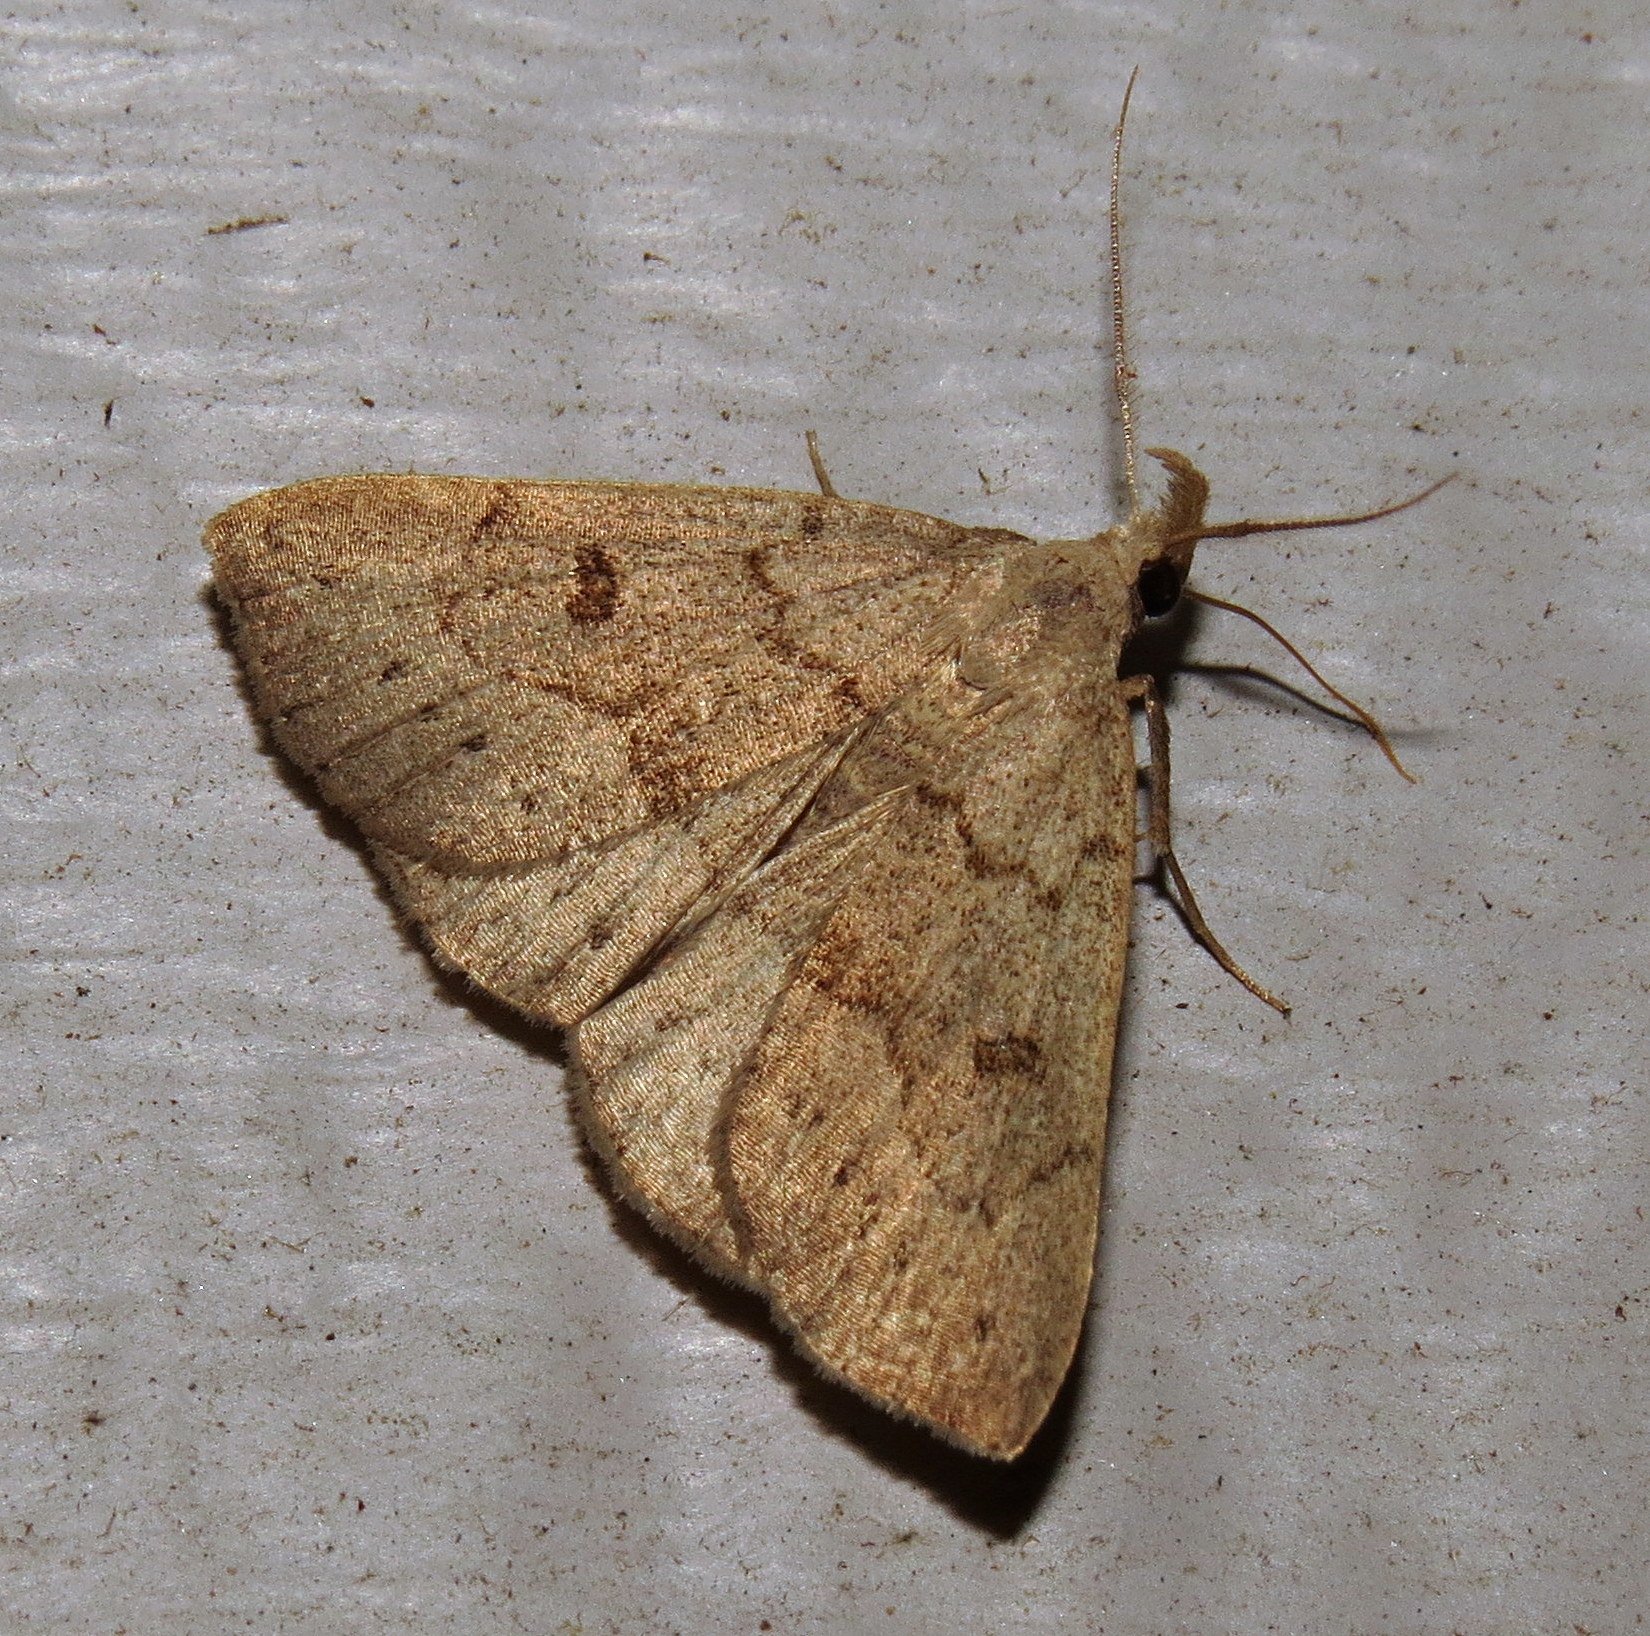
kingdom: Animalia
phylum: Arthropoda
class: Insecta
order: Lepidoptera
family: Erebidae
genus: Macrochilo
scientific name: Macrochilo morbidalis
